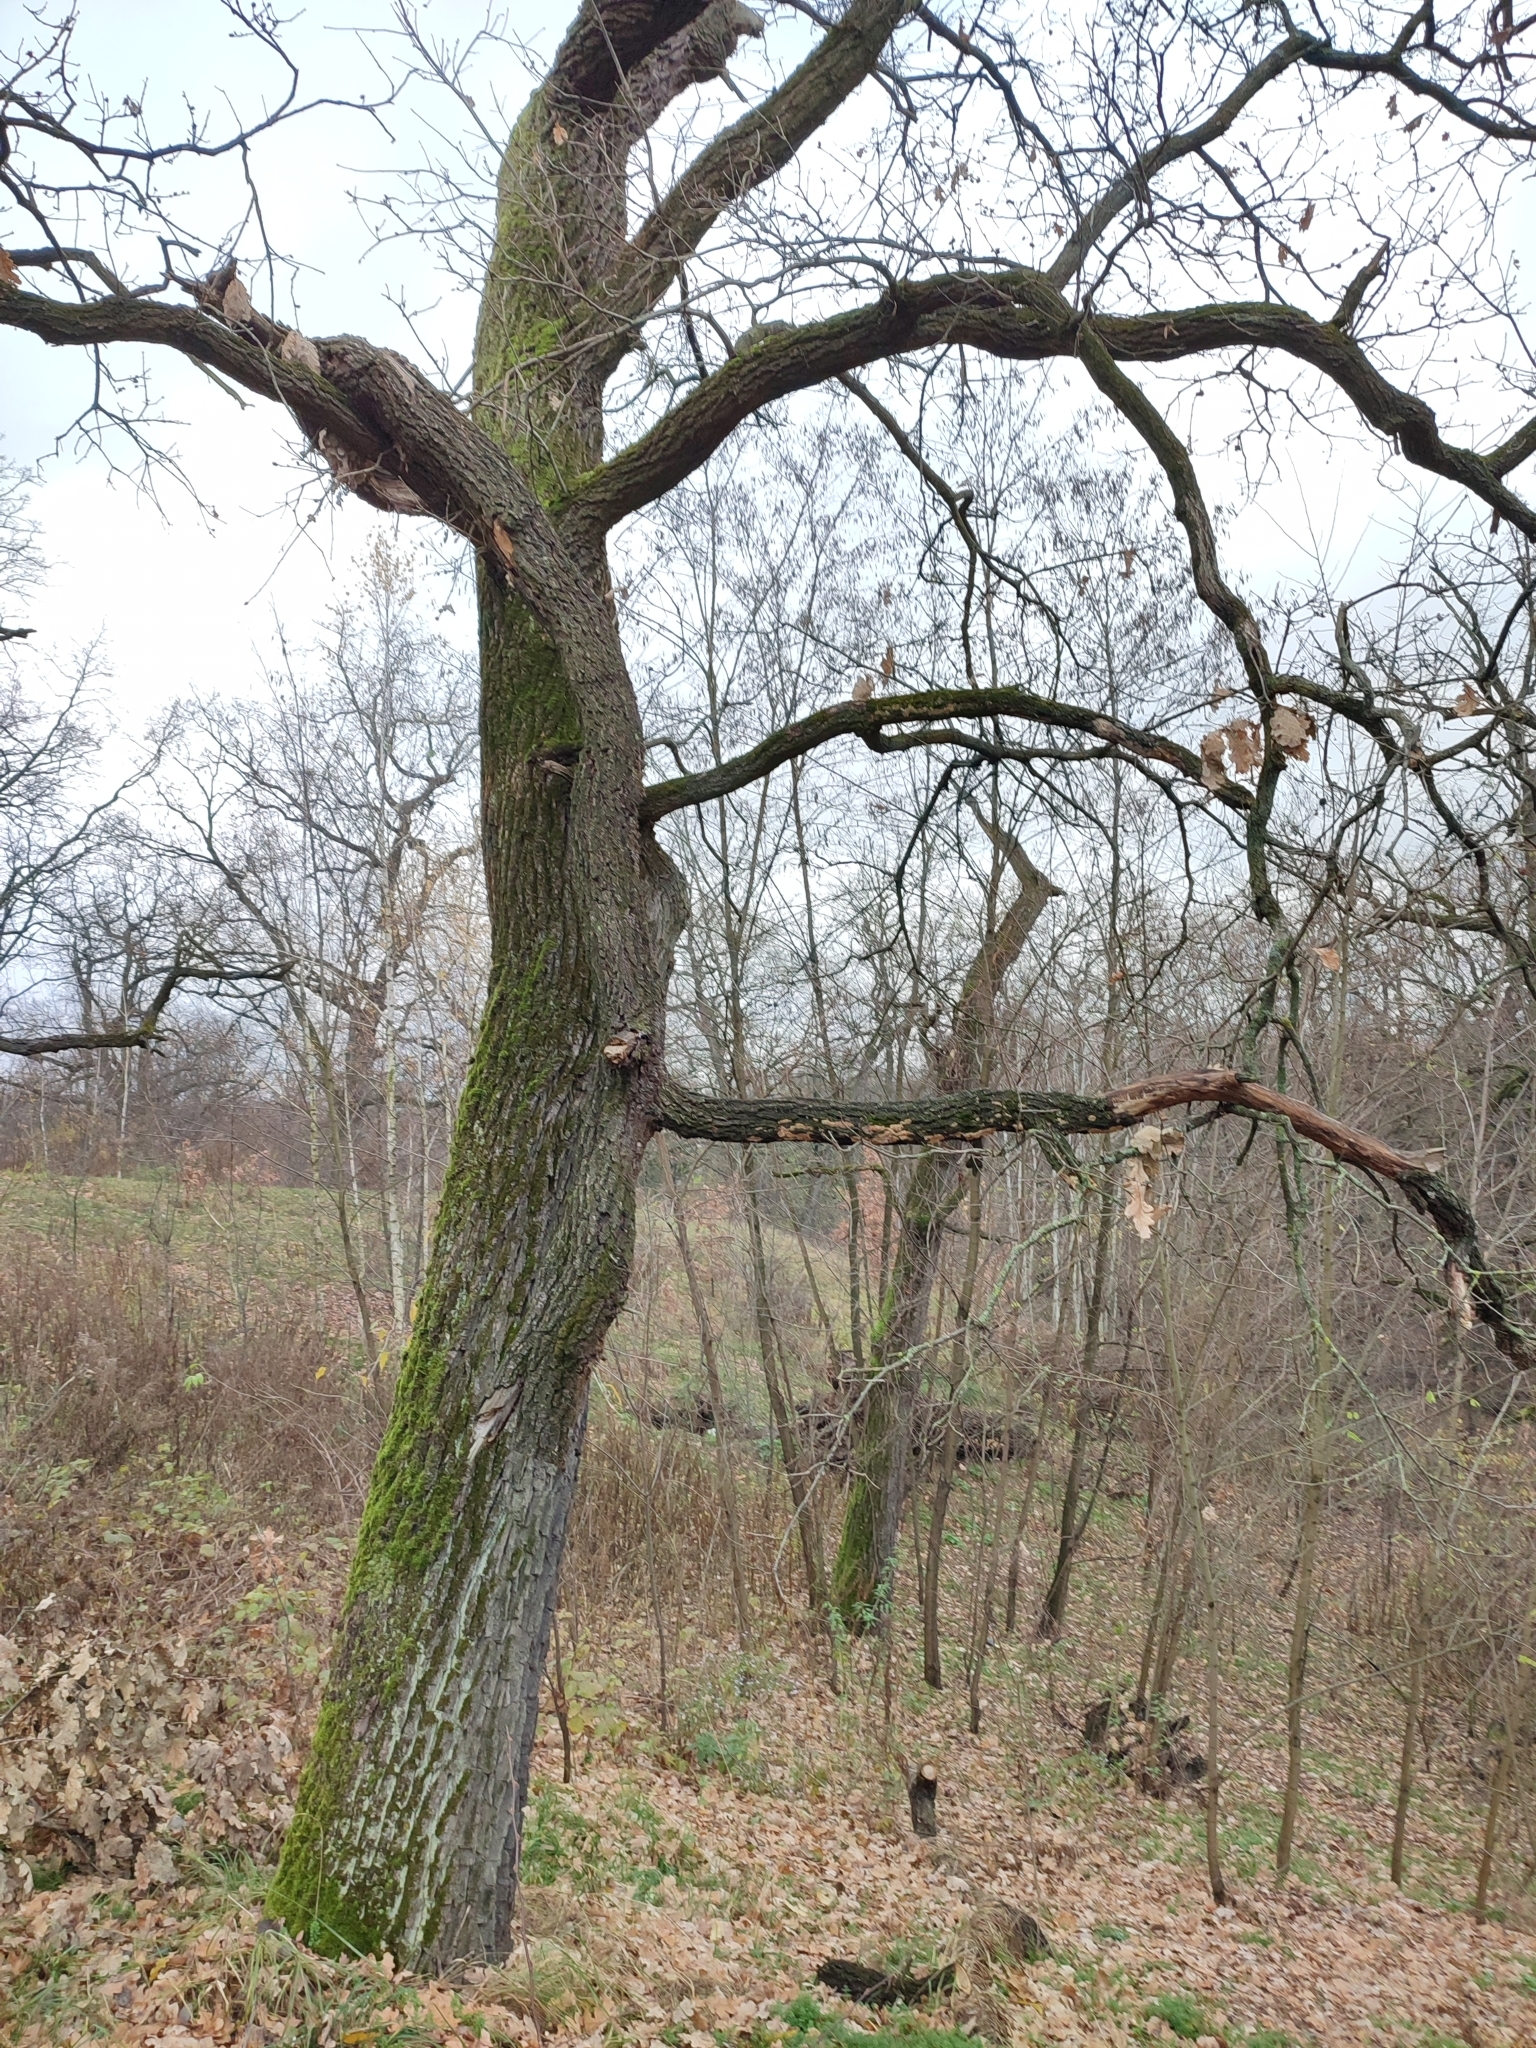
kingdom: Plantae
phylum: Tracheophyta
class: Magnoliopsida
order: Fagales
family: Fagaceae
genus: Quercus
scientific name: Quercus robur
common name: Pedunculate oak
